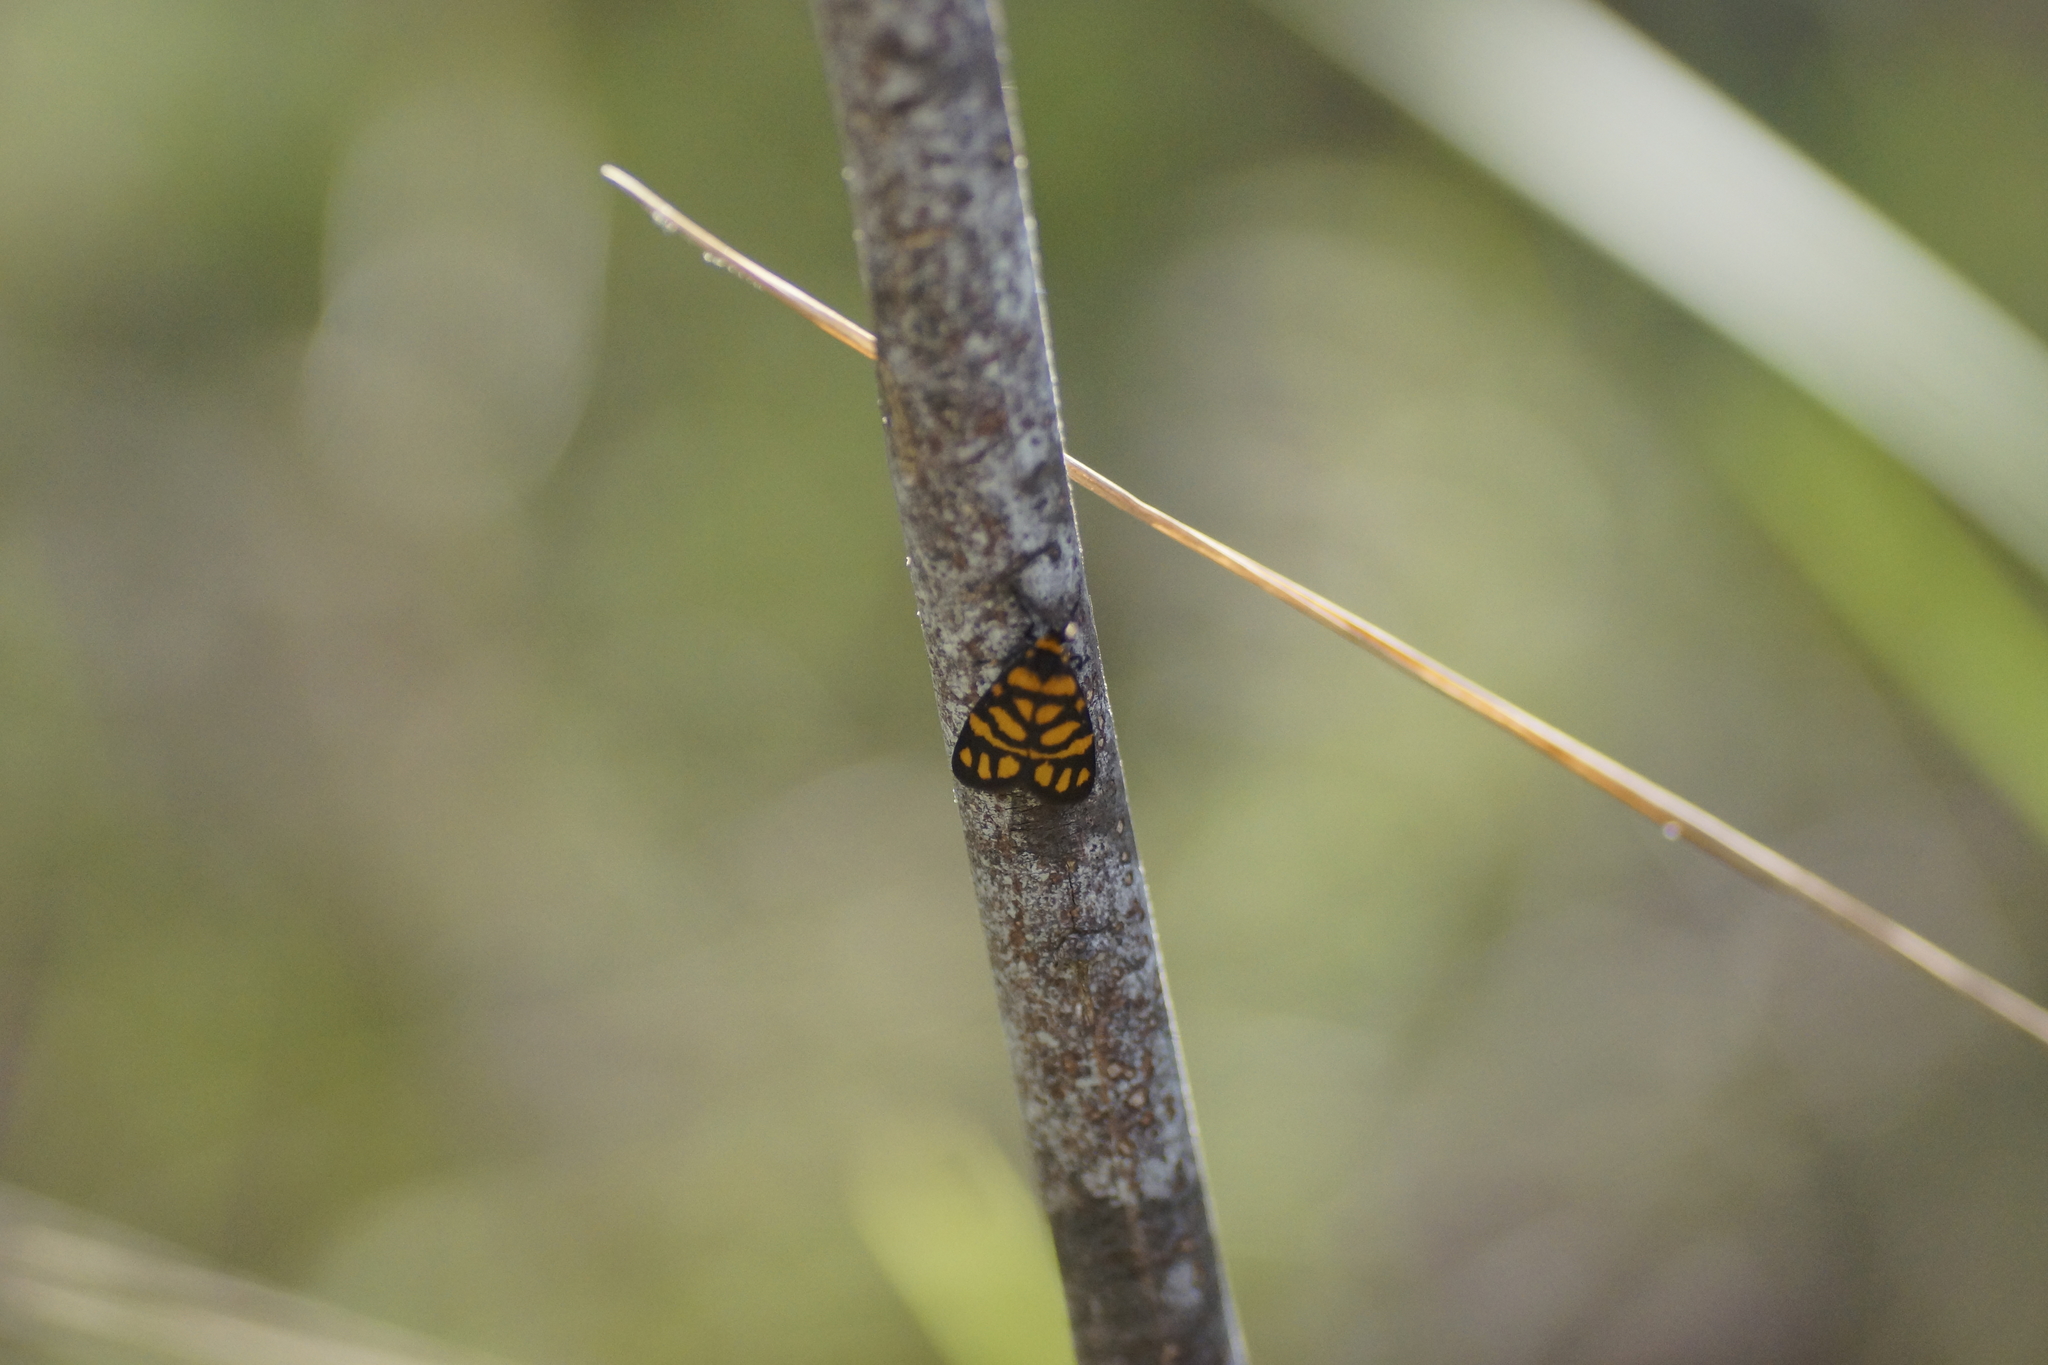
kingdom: Animalia
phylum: Arthropoda
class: Insecta
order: Lepidoptera
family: Erebidae
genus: Asura
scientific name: Asura lydia
